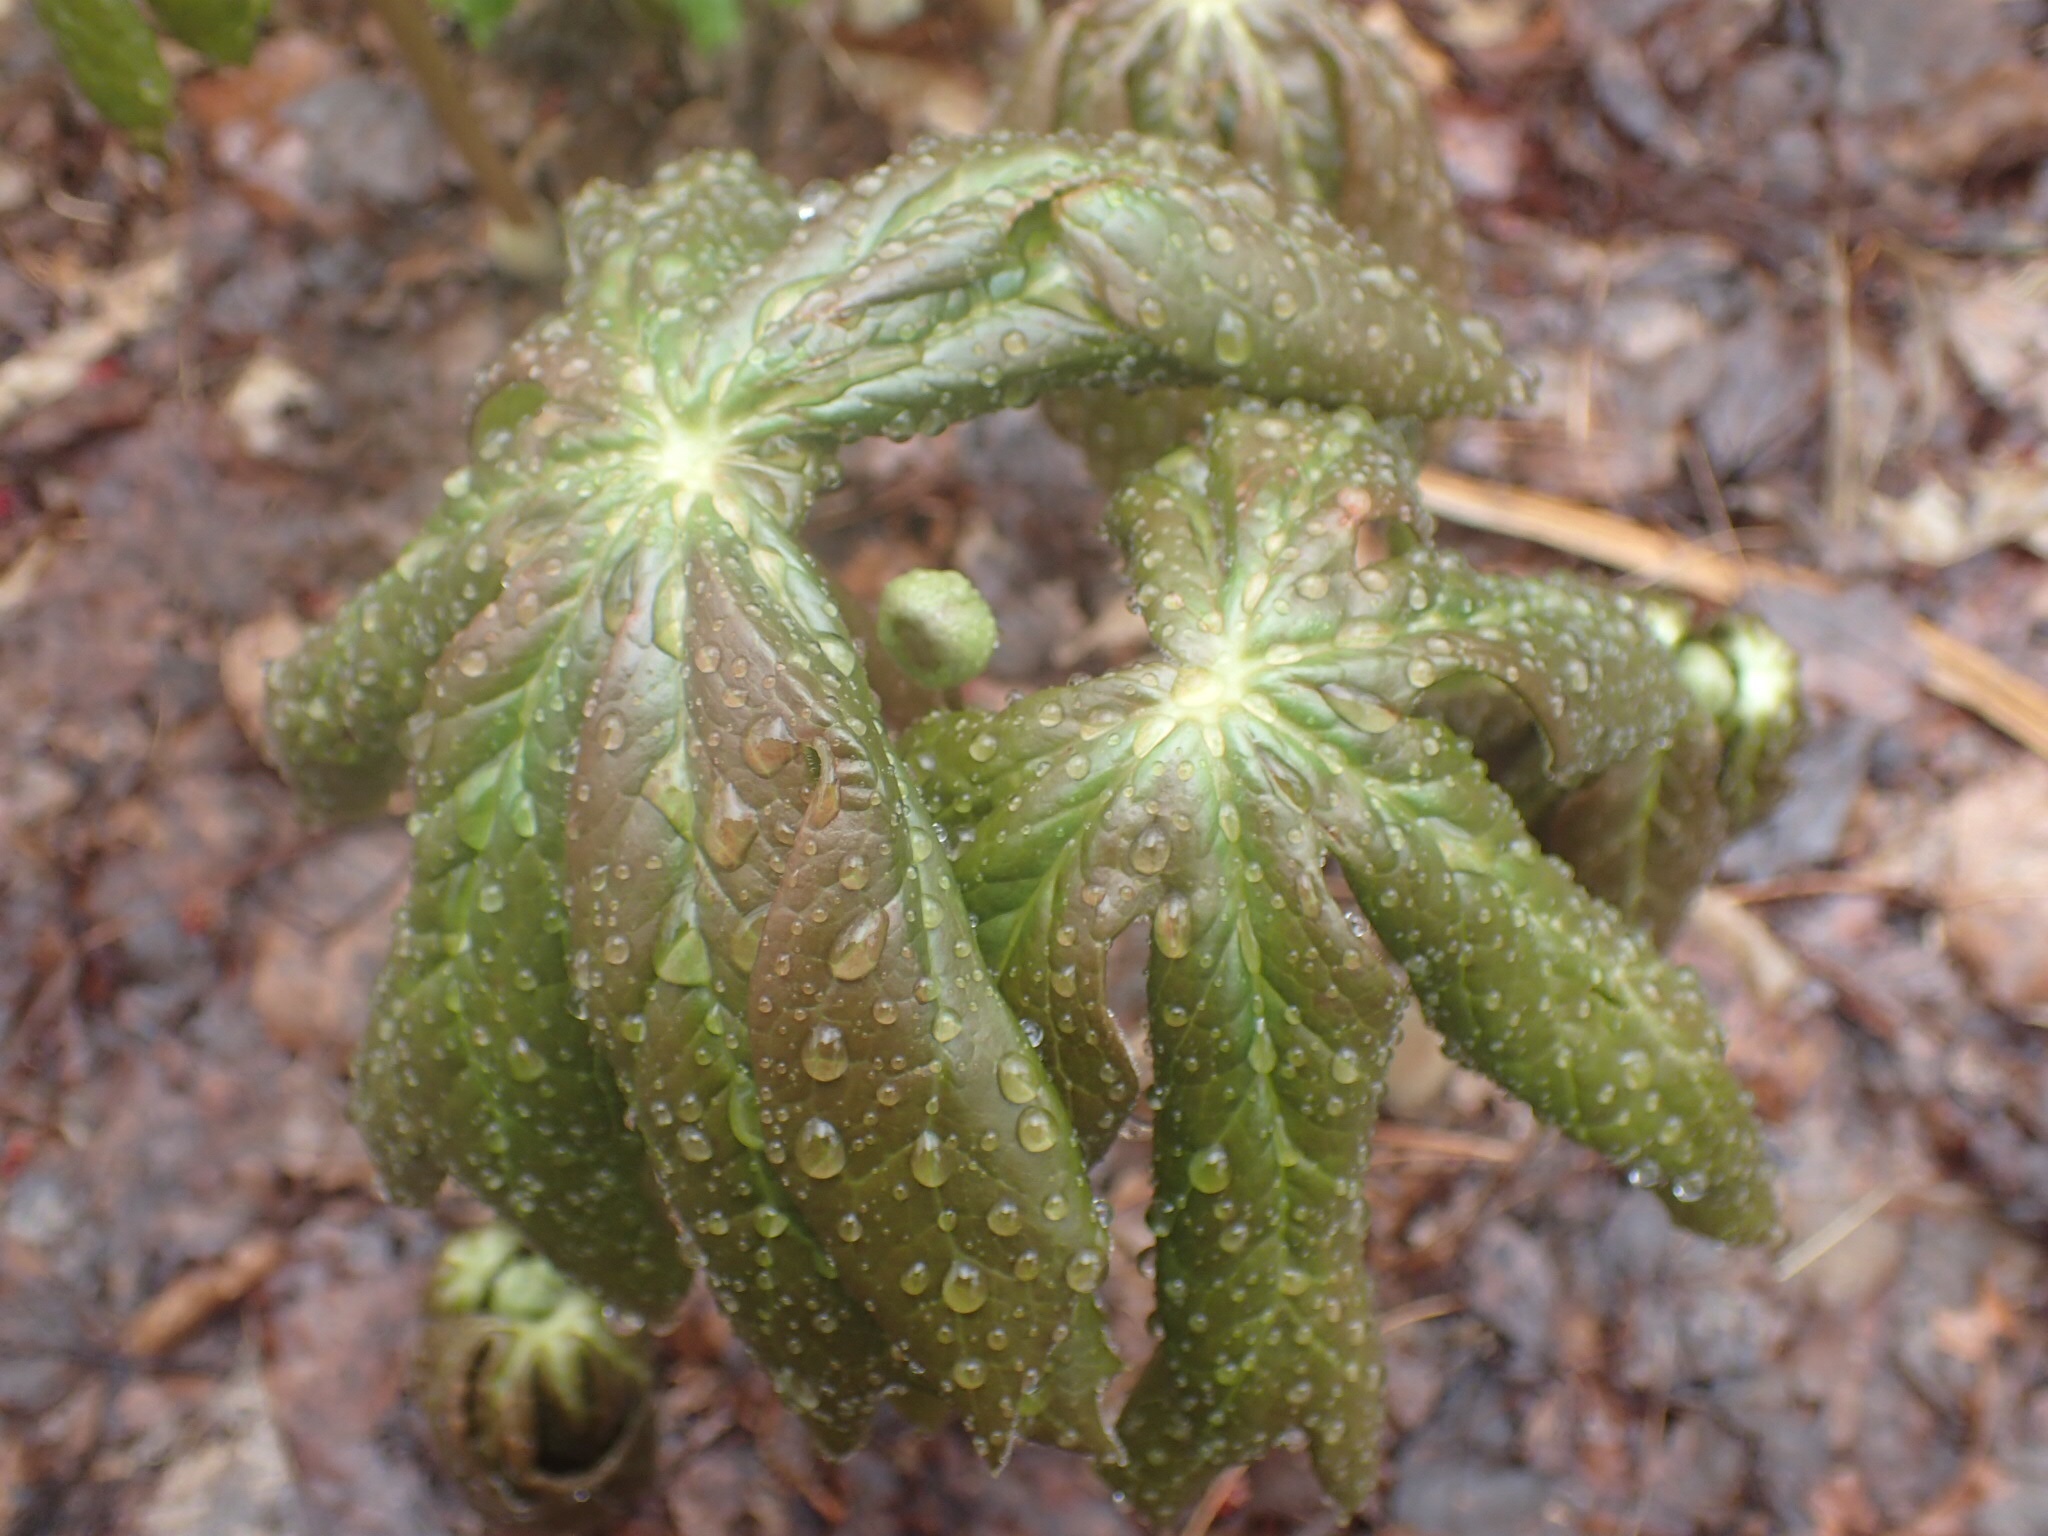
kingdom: Plantae
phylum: Tracheophyta
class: Magnoliopsida
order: Ranunculales
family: Berberidaceae
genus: Podophyllum
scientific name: Podophyllum peltatum
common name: Wild mandrake
